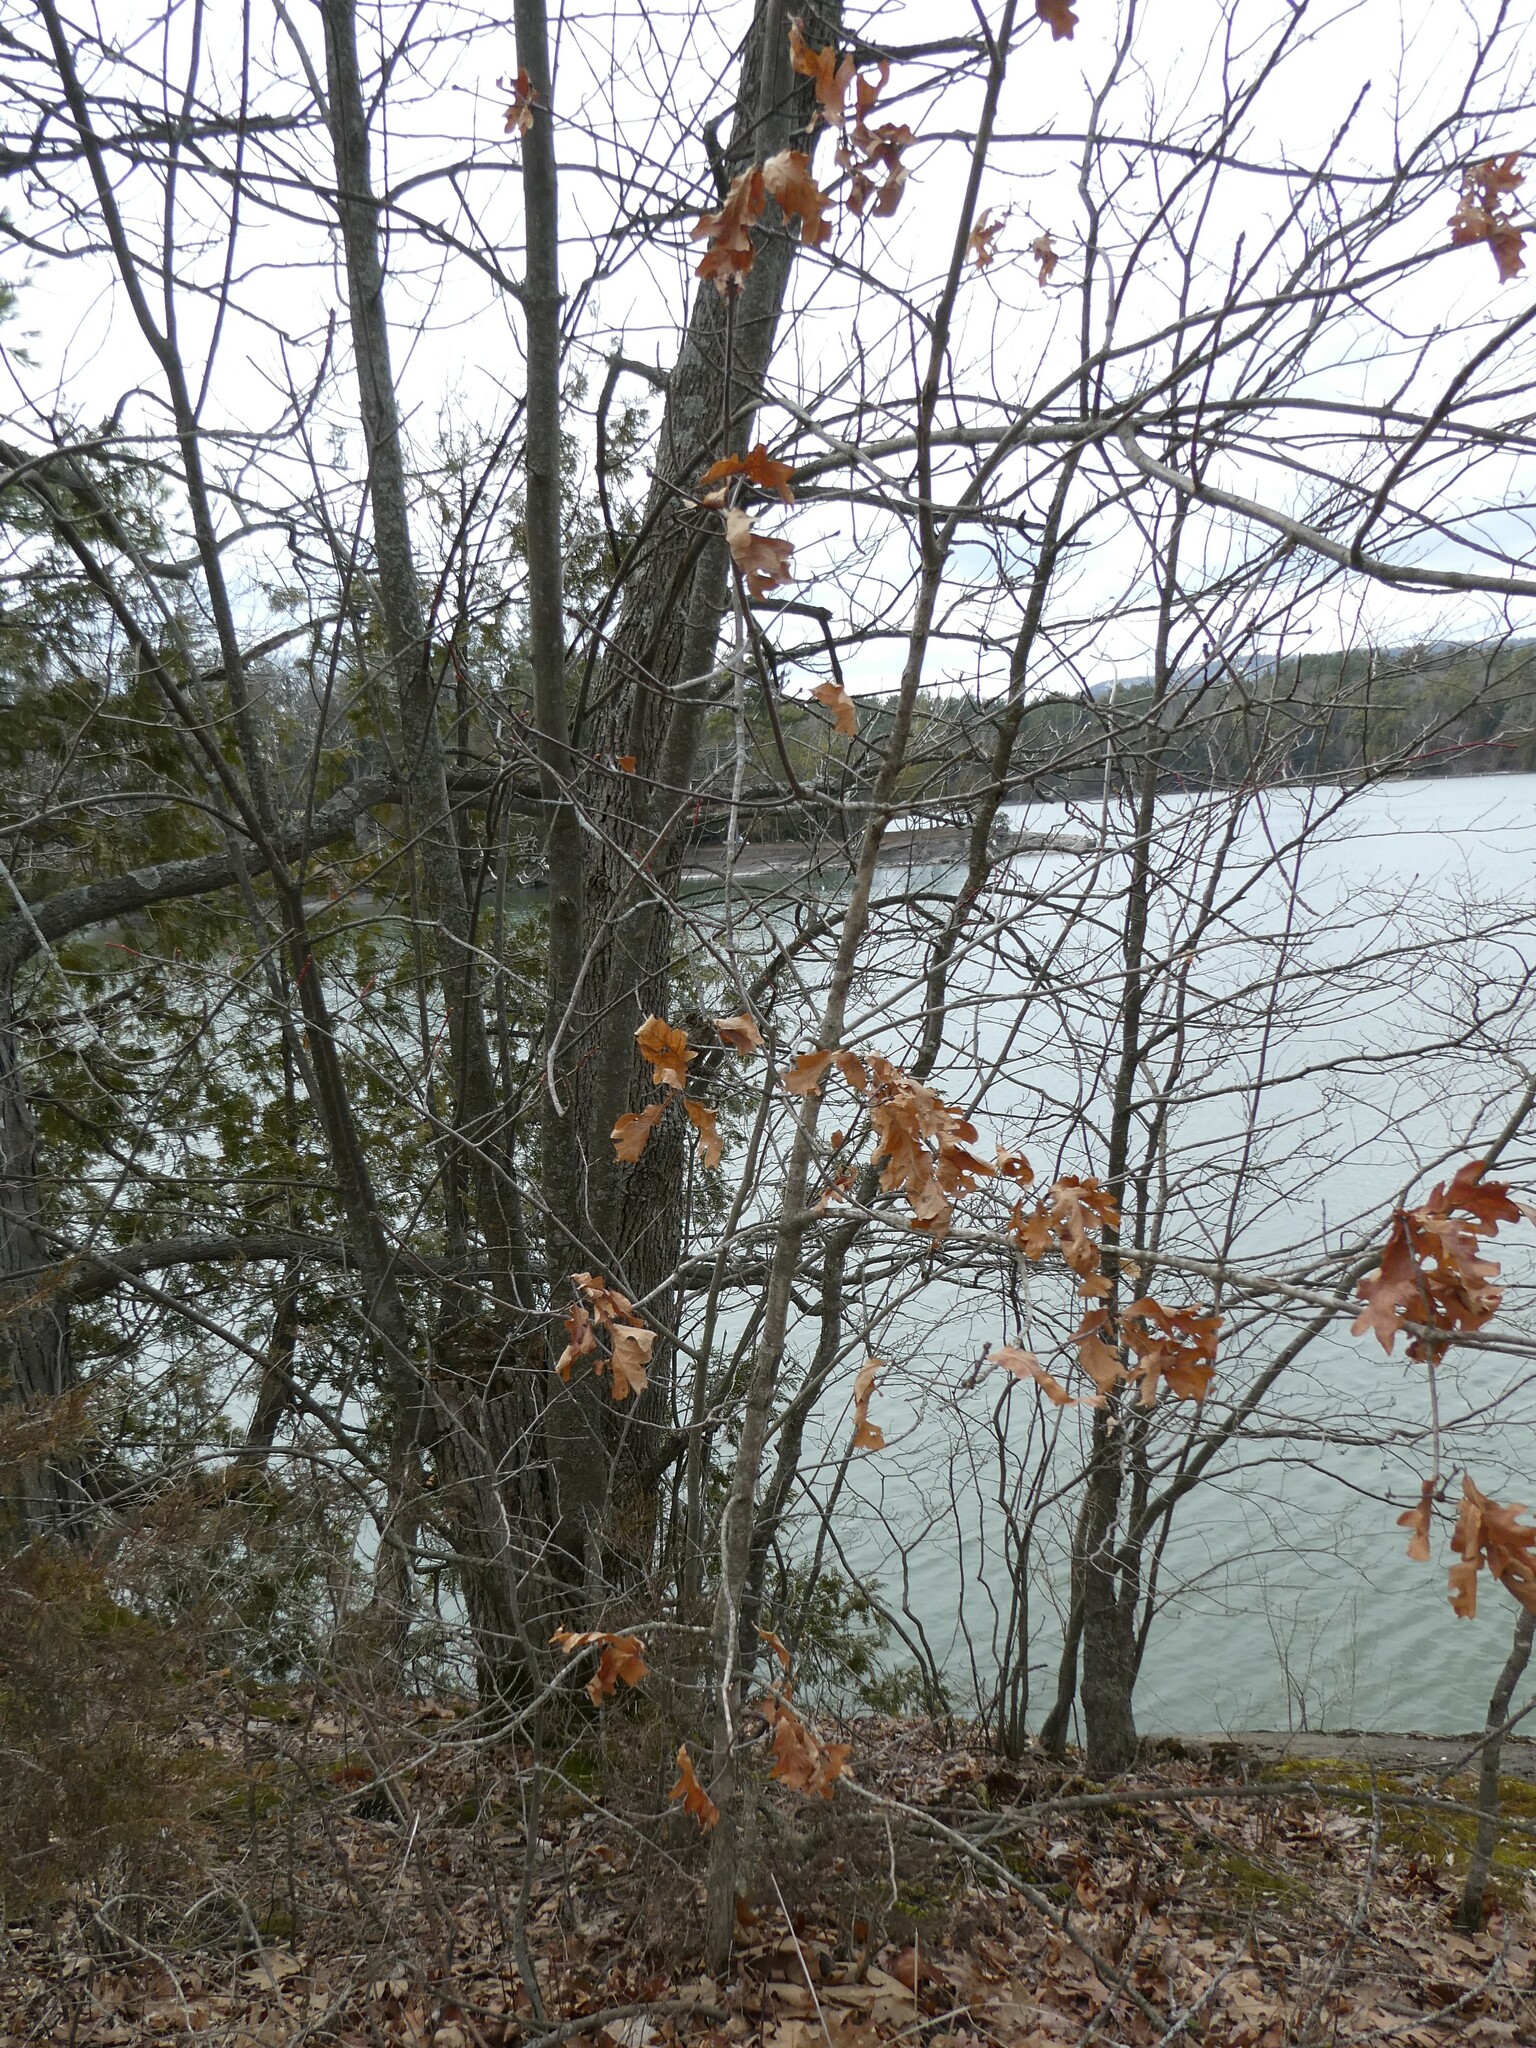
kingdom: Plantae
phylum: Tracheophyta
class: Magnoliopsida
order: Fagales
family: Fagaceae
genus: Quercus
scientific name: Quercus alba
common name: White oak
